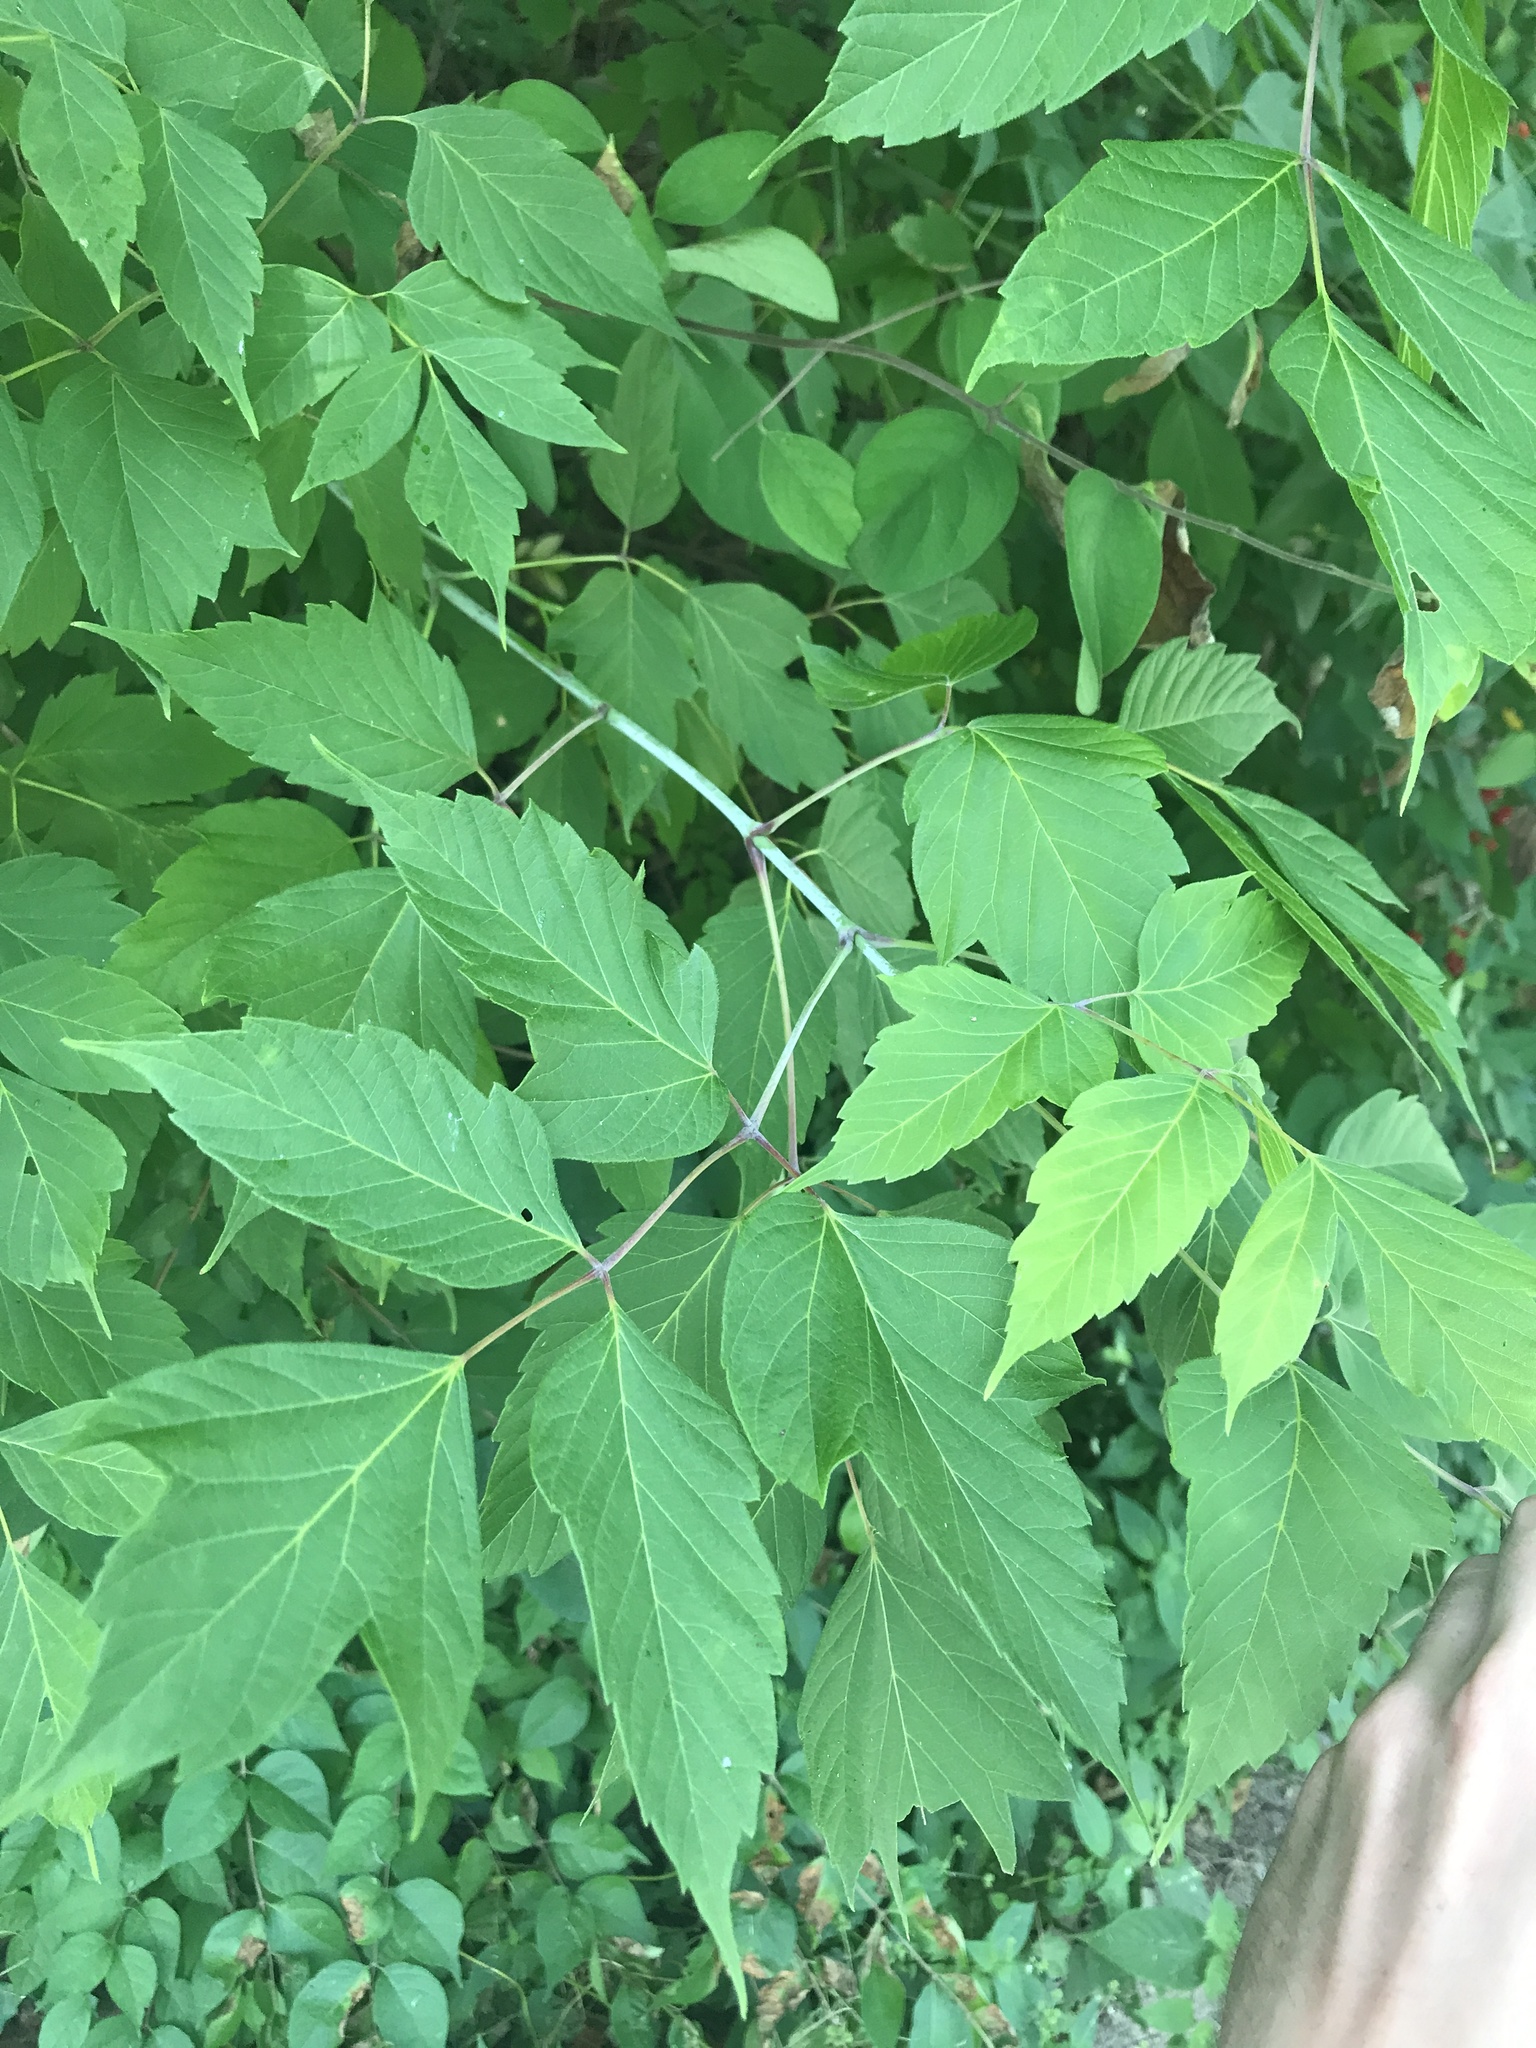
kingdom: Plantae
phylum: Tracheophyta
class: Magnoliopsida
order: Sapindales
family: Sapindaceae
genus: Acer
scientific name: Acer negundo
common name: Ashleaf maple
